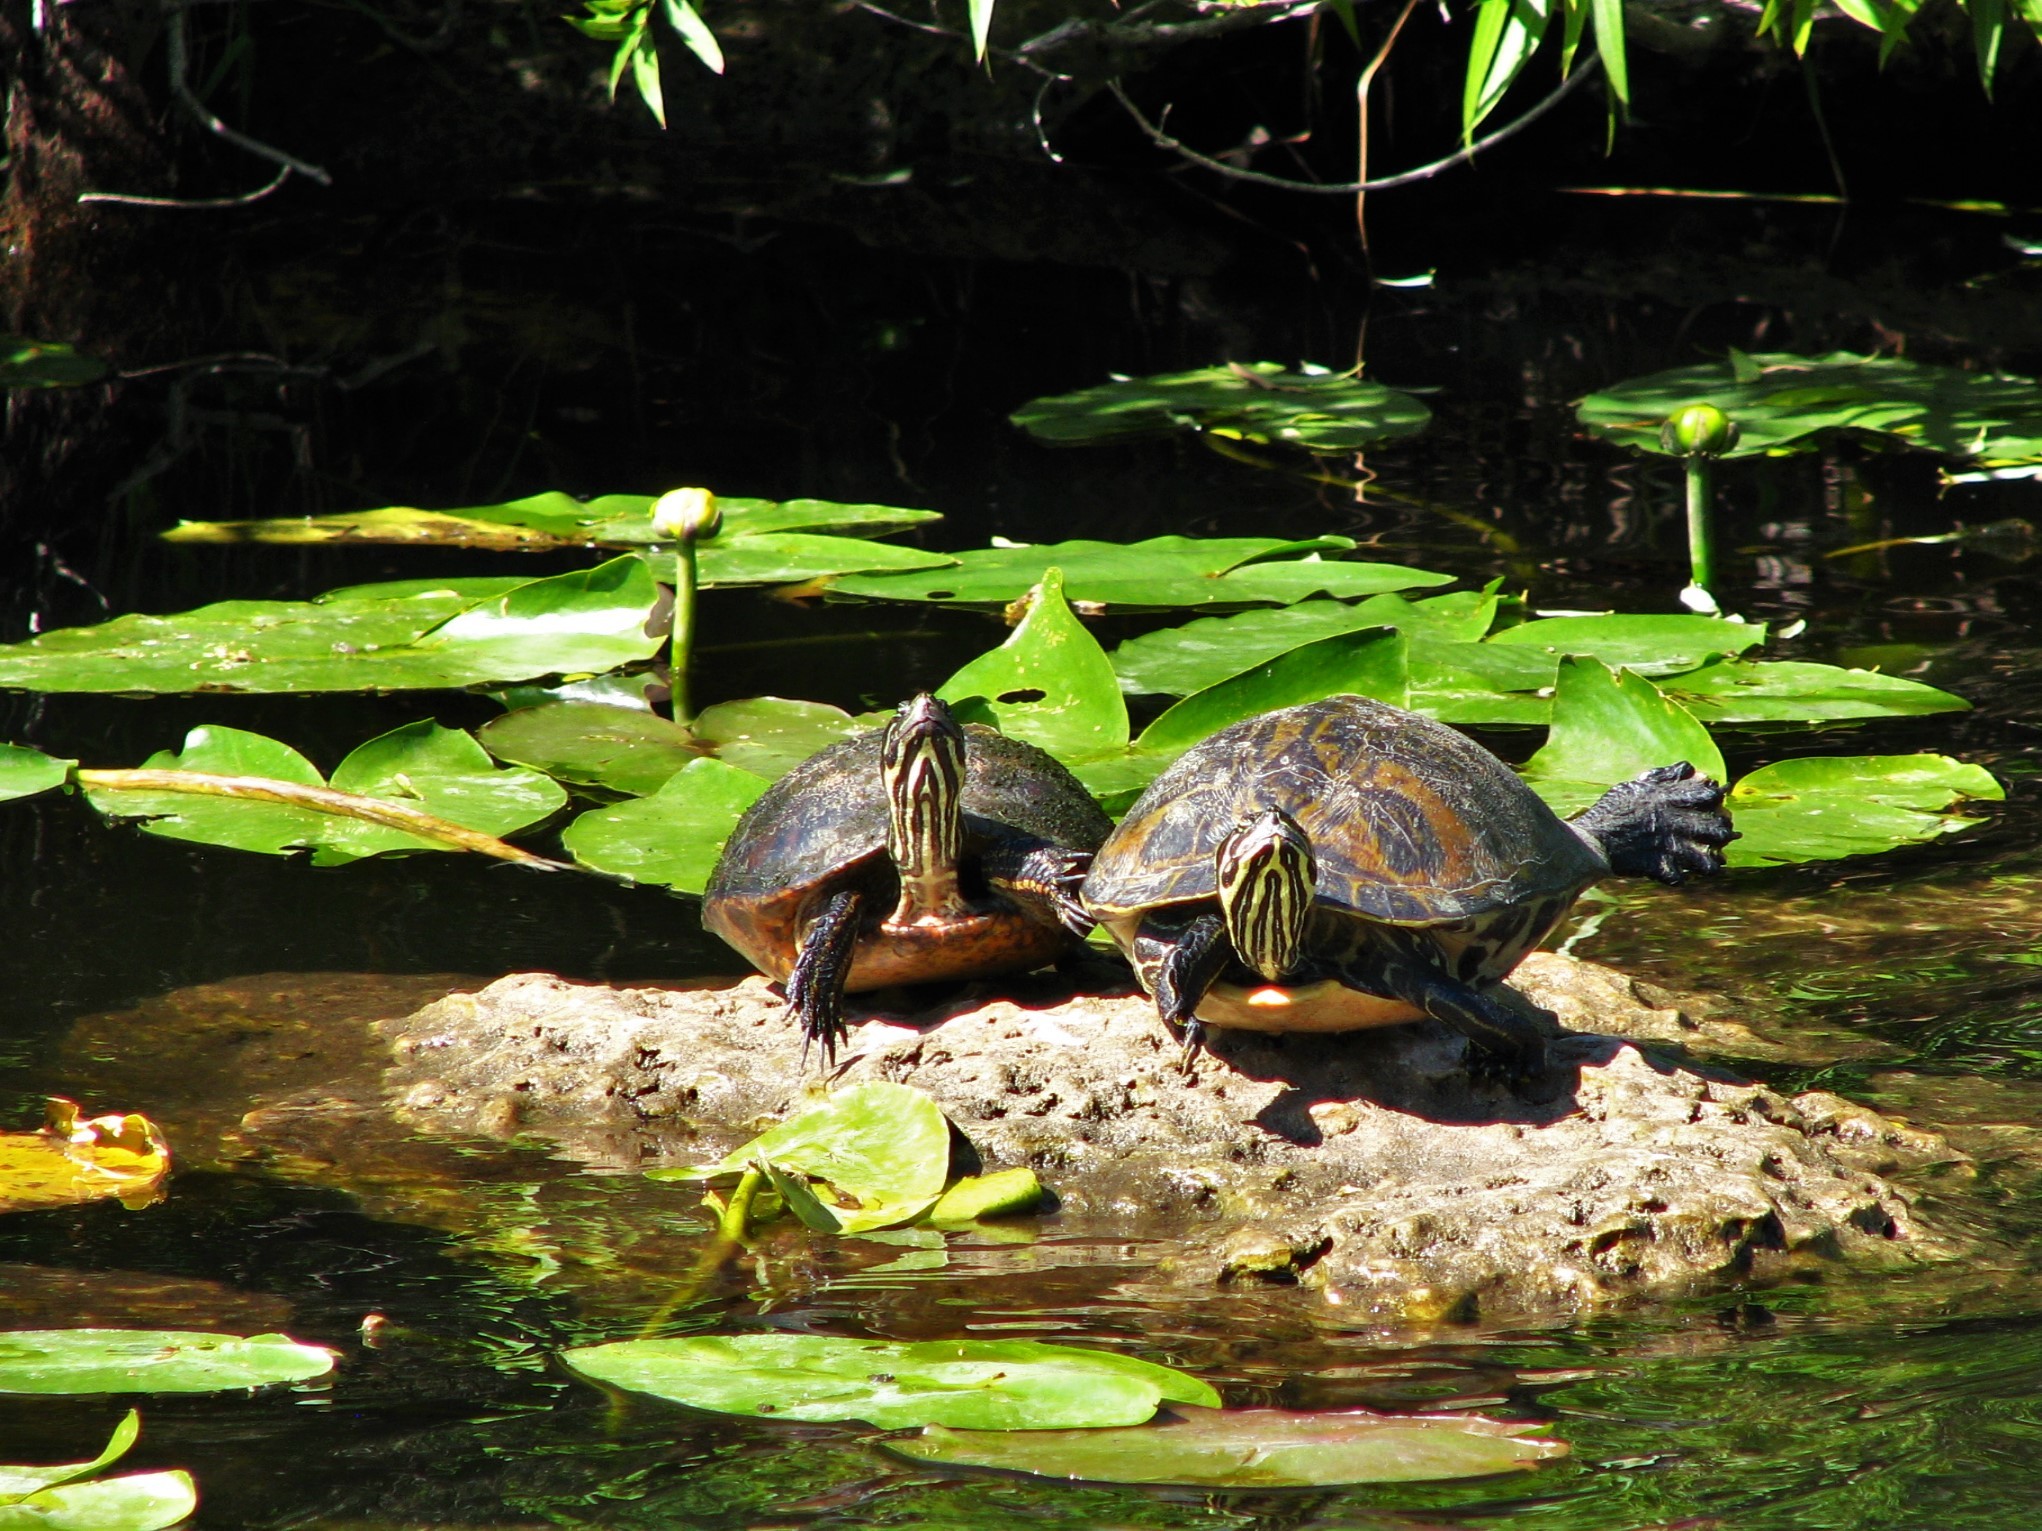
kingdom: Animalia
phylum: Chordata
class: Testudines
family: Emydidae
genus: Pseudemys
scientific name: Pseudemys nelsoni
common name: Florida red-bellied turtle
